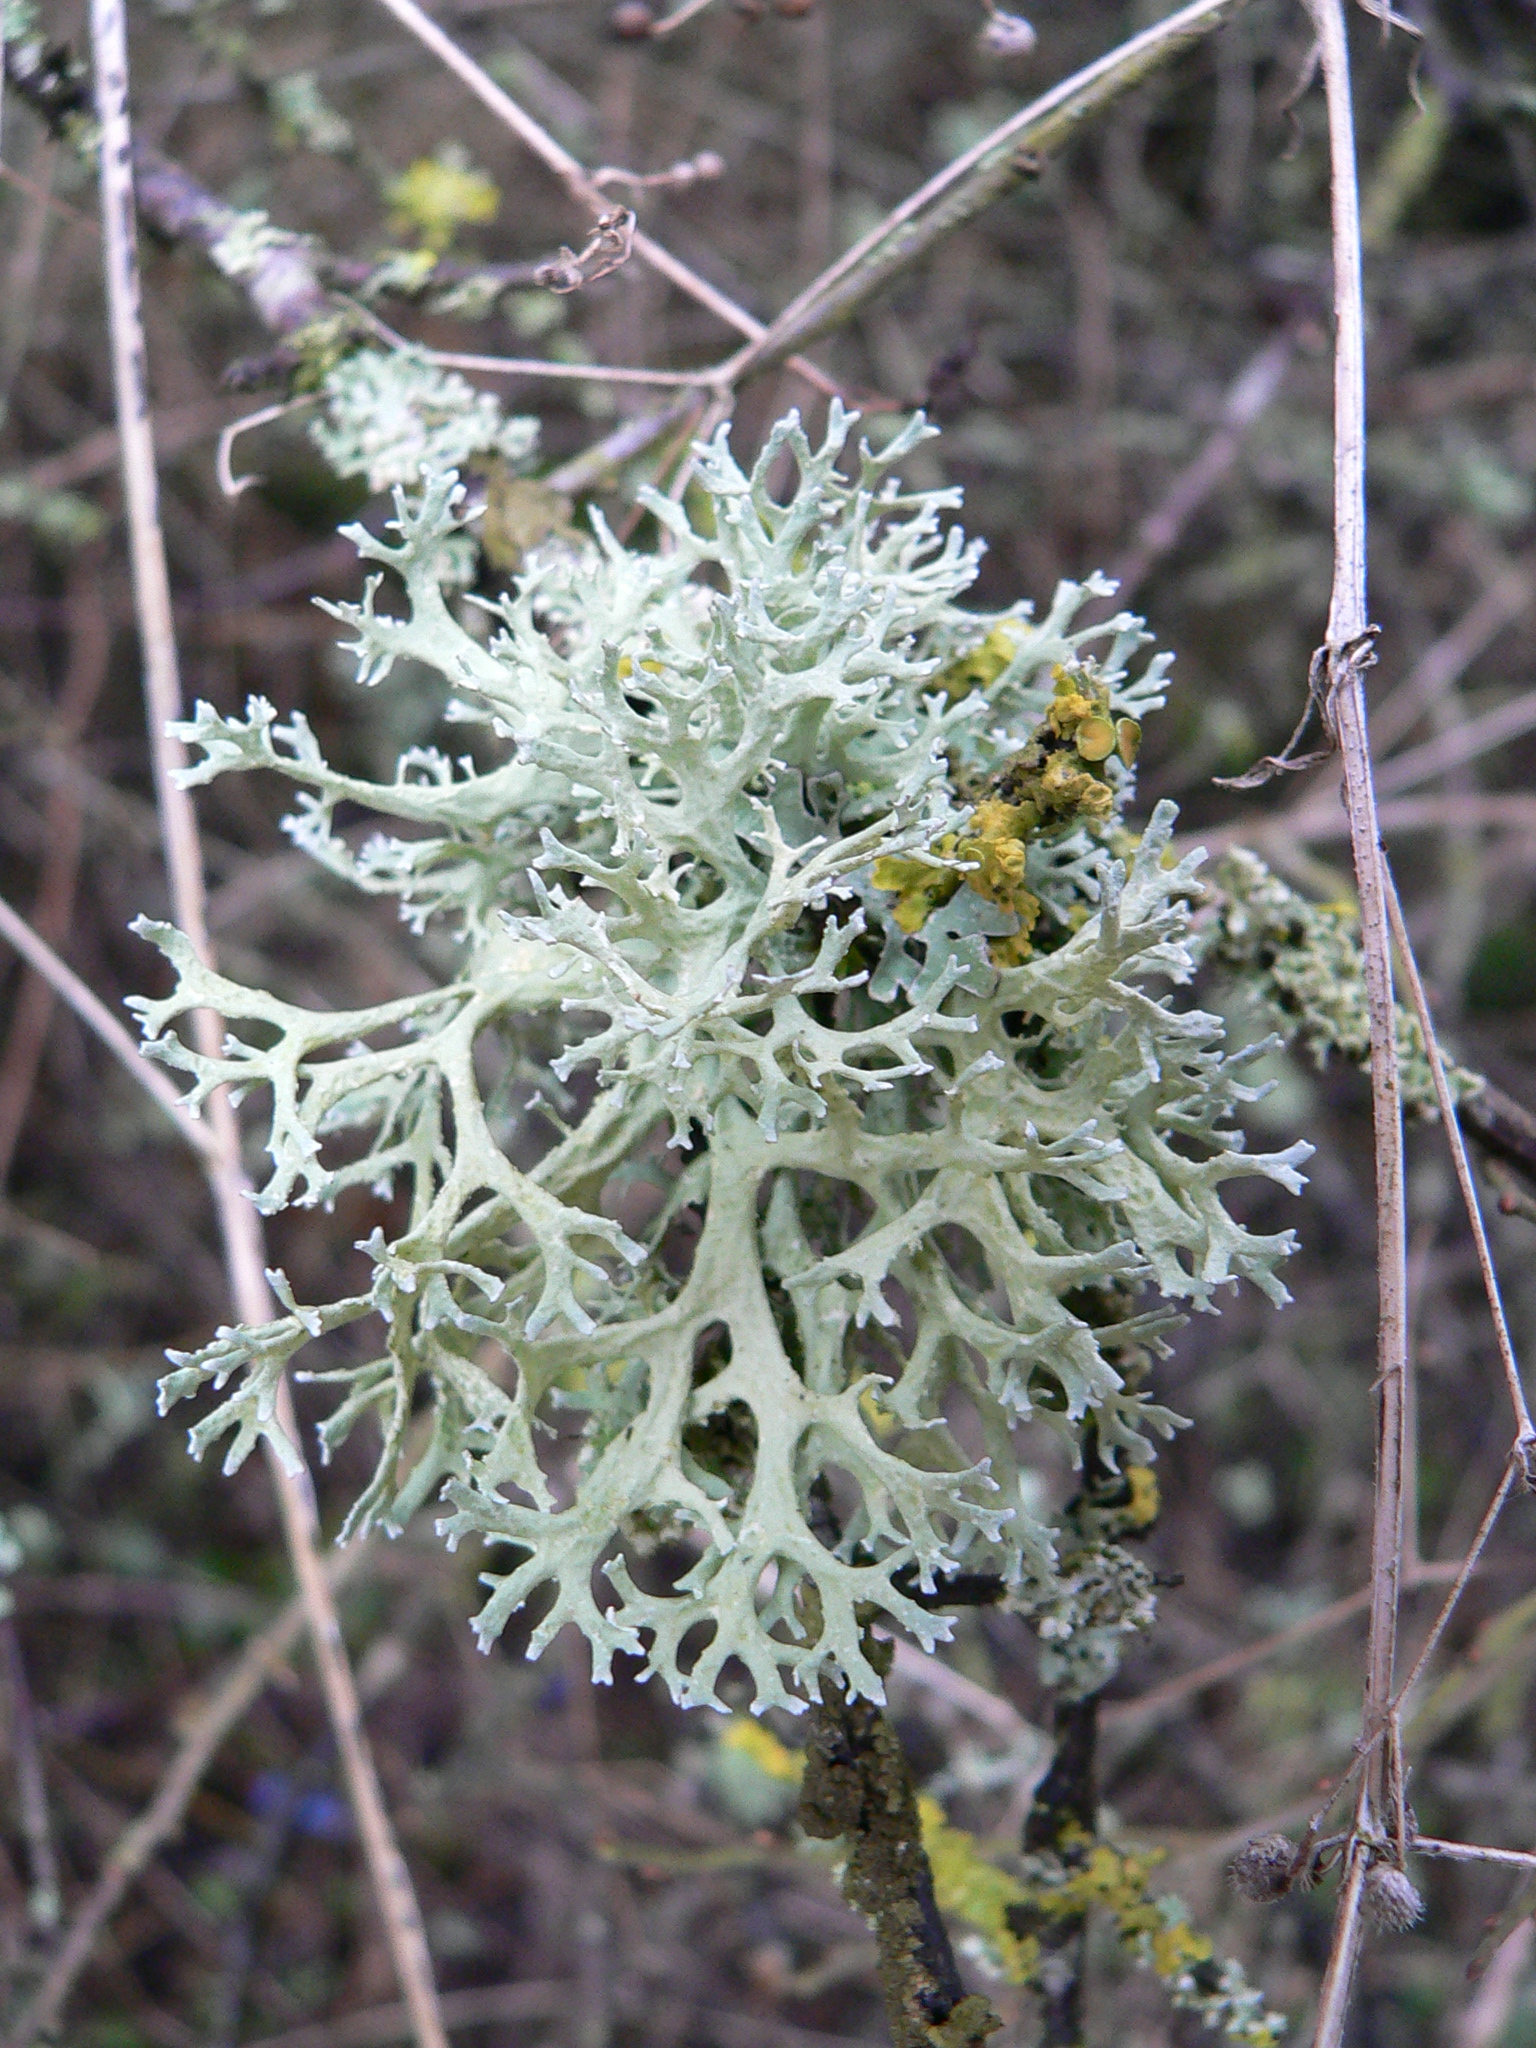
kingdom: Fungi
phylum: Ascomycota
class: Lecanoromycetes
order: Lecanorales
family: Parmeliaceae
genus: Evernia
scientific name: Evernia prunastri
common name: Oak moss
